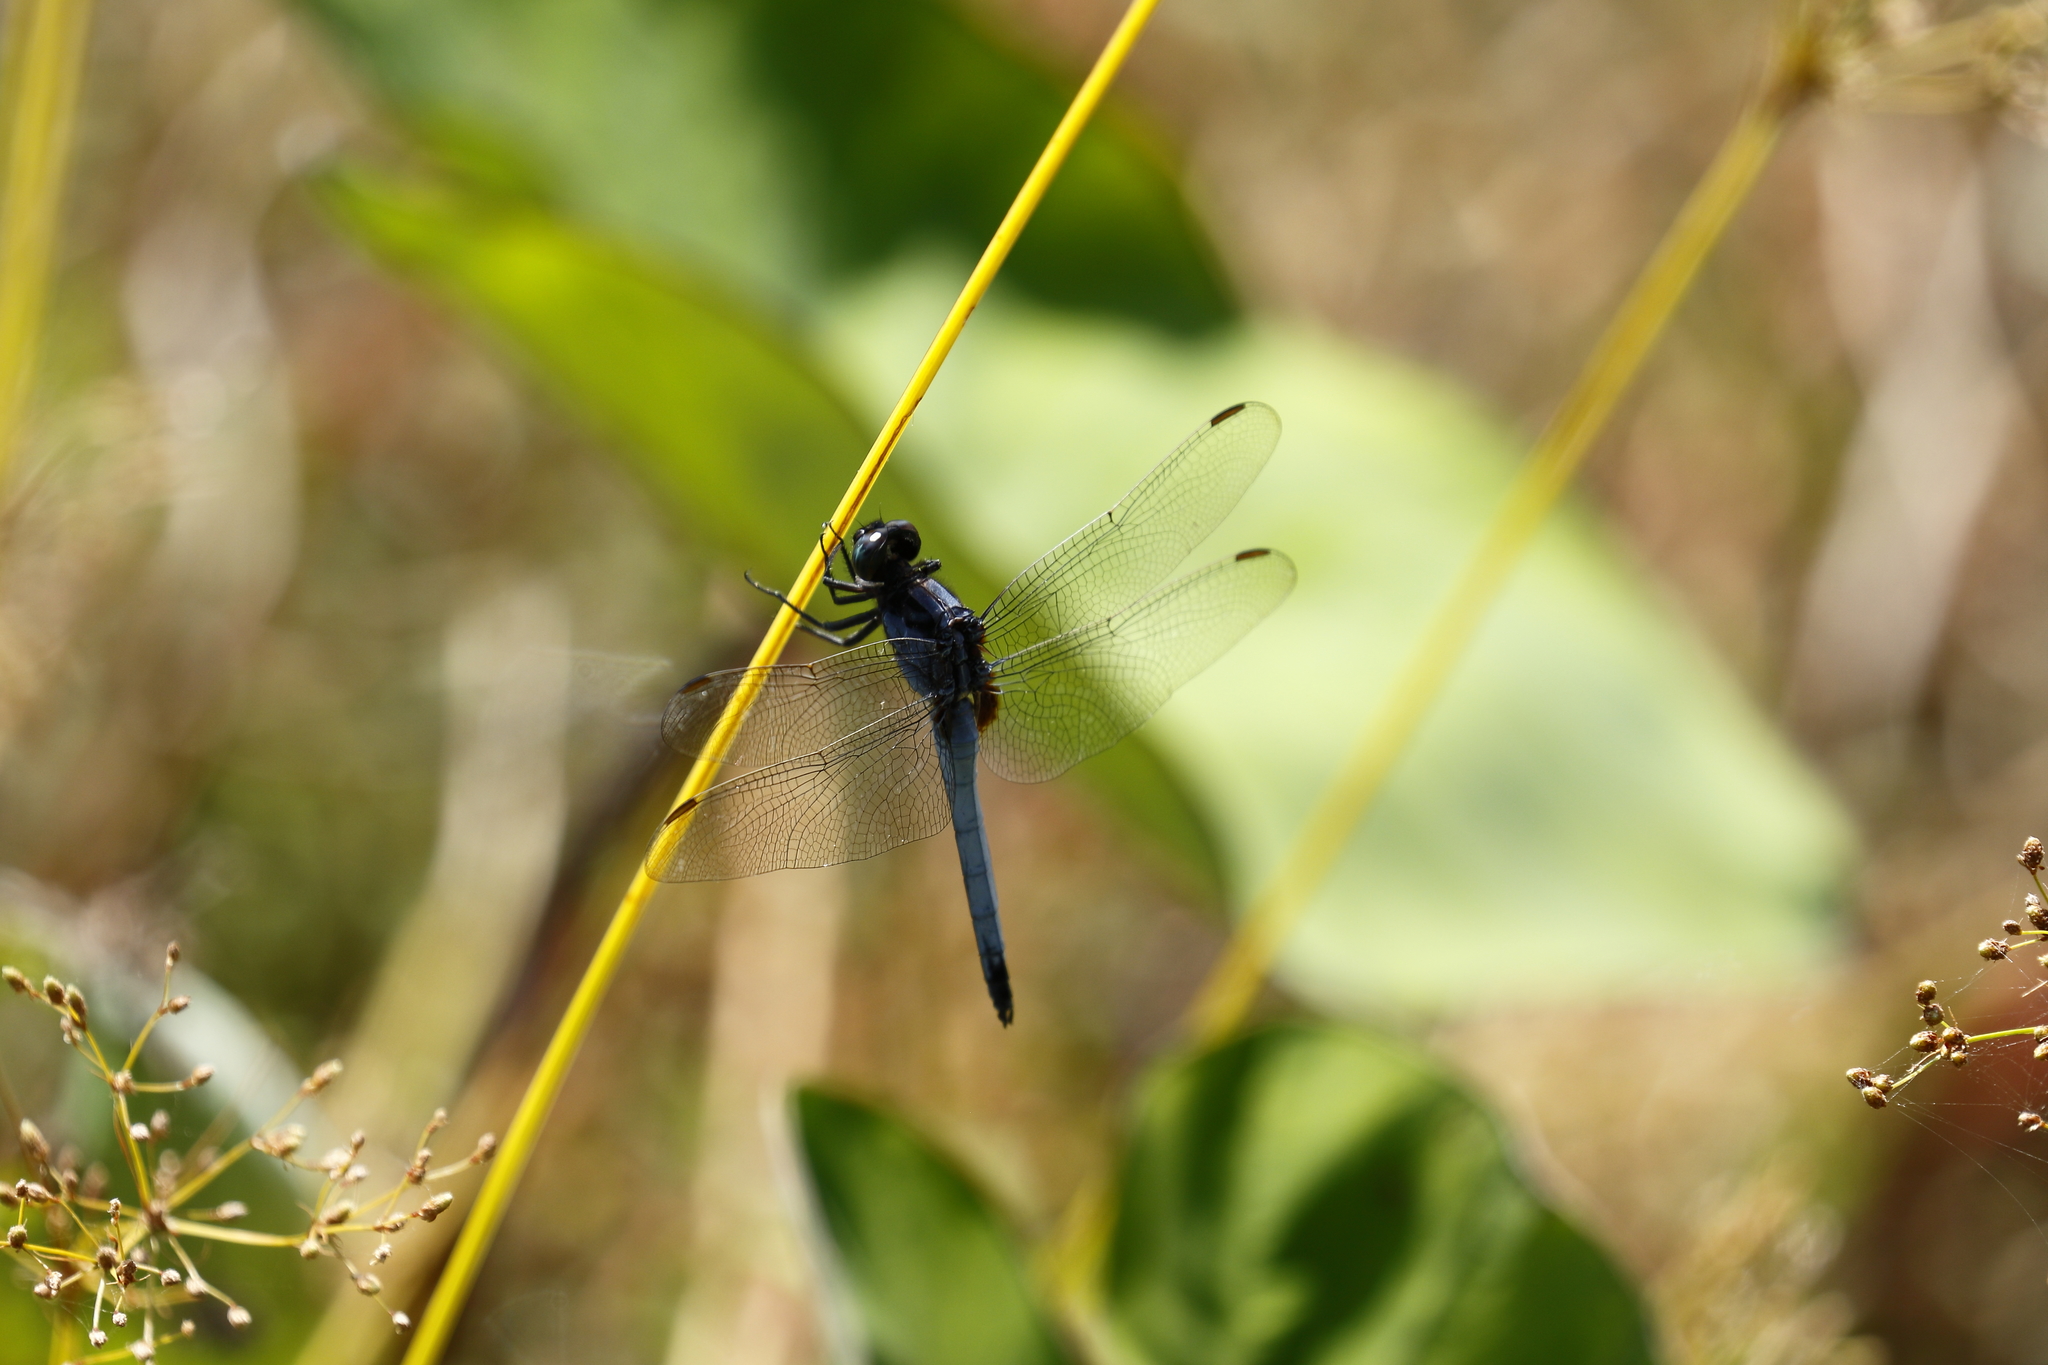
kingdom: Animalia
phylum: Arthropoda
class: Insecta
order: Odonata
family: Libellulidae
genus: Orthetrum
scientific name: Orthetrum glaucum
